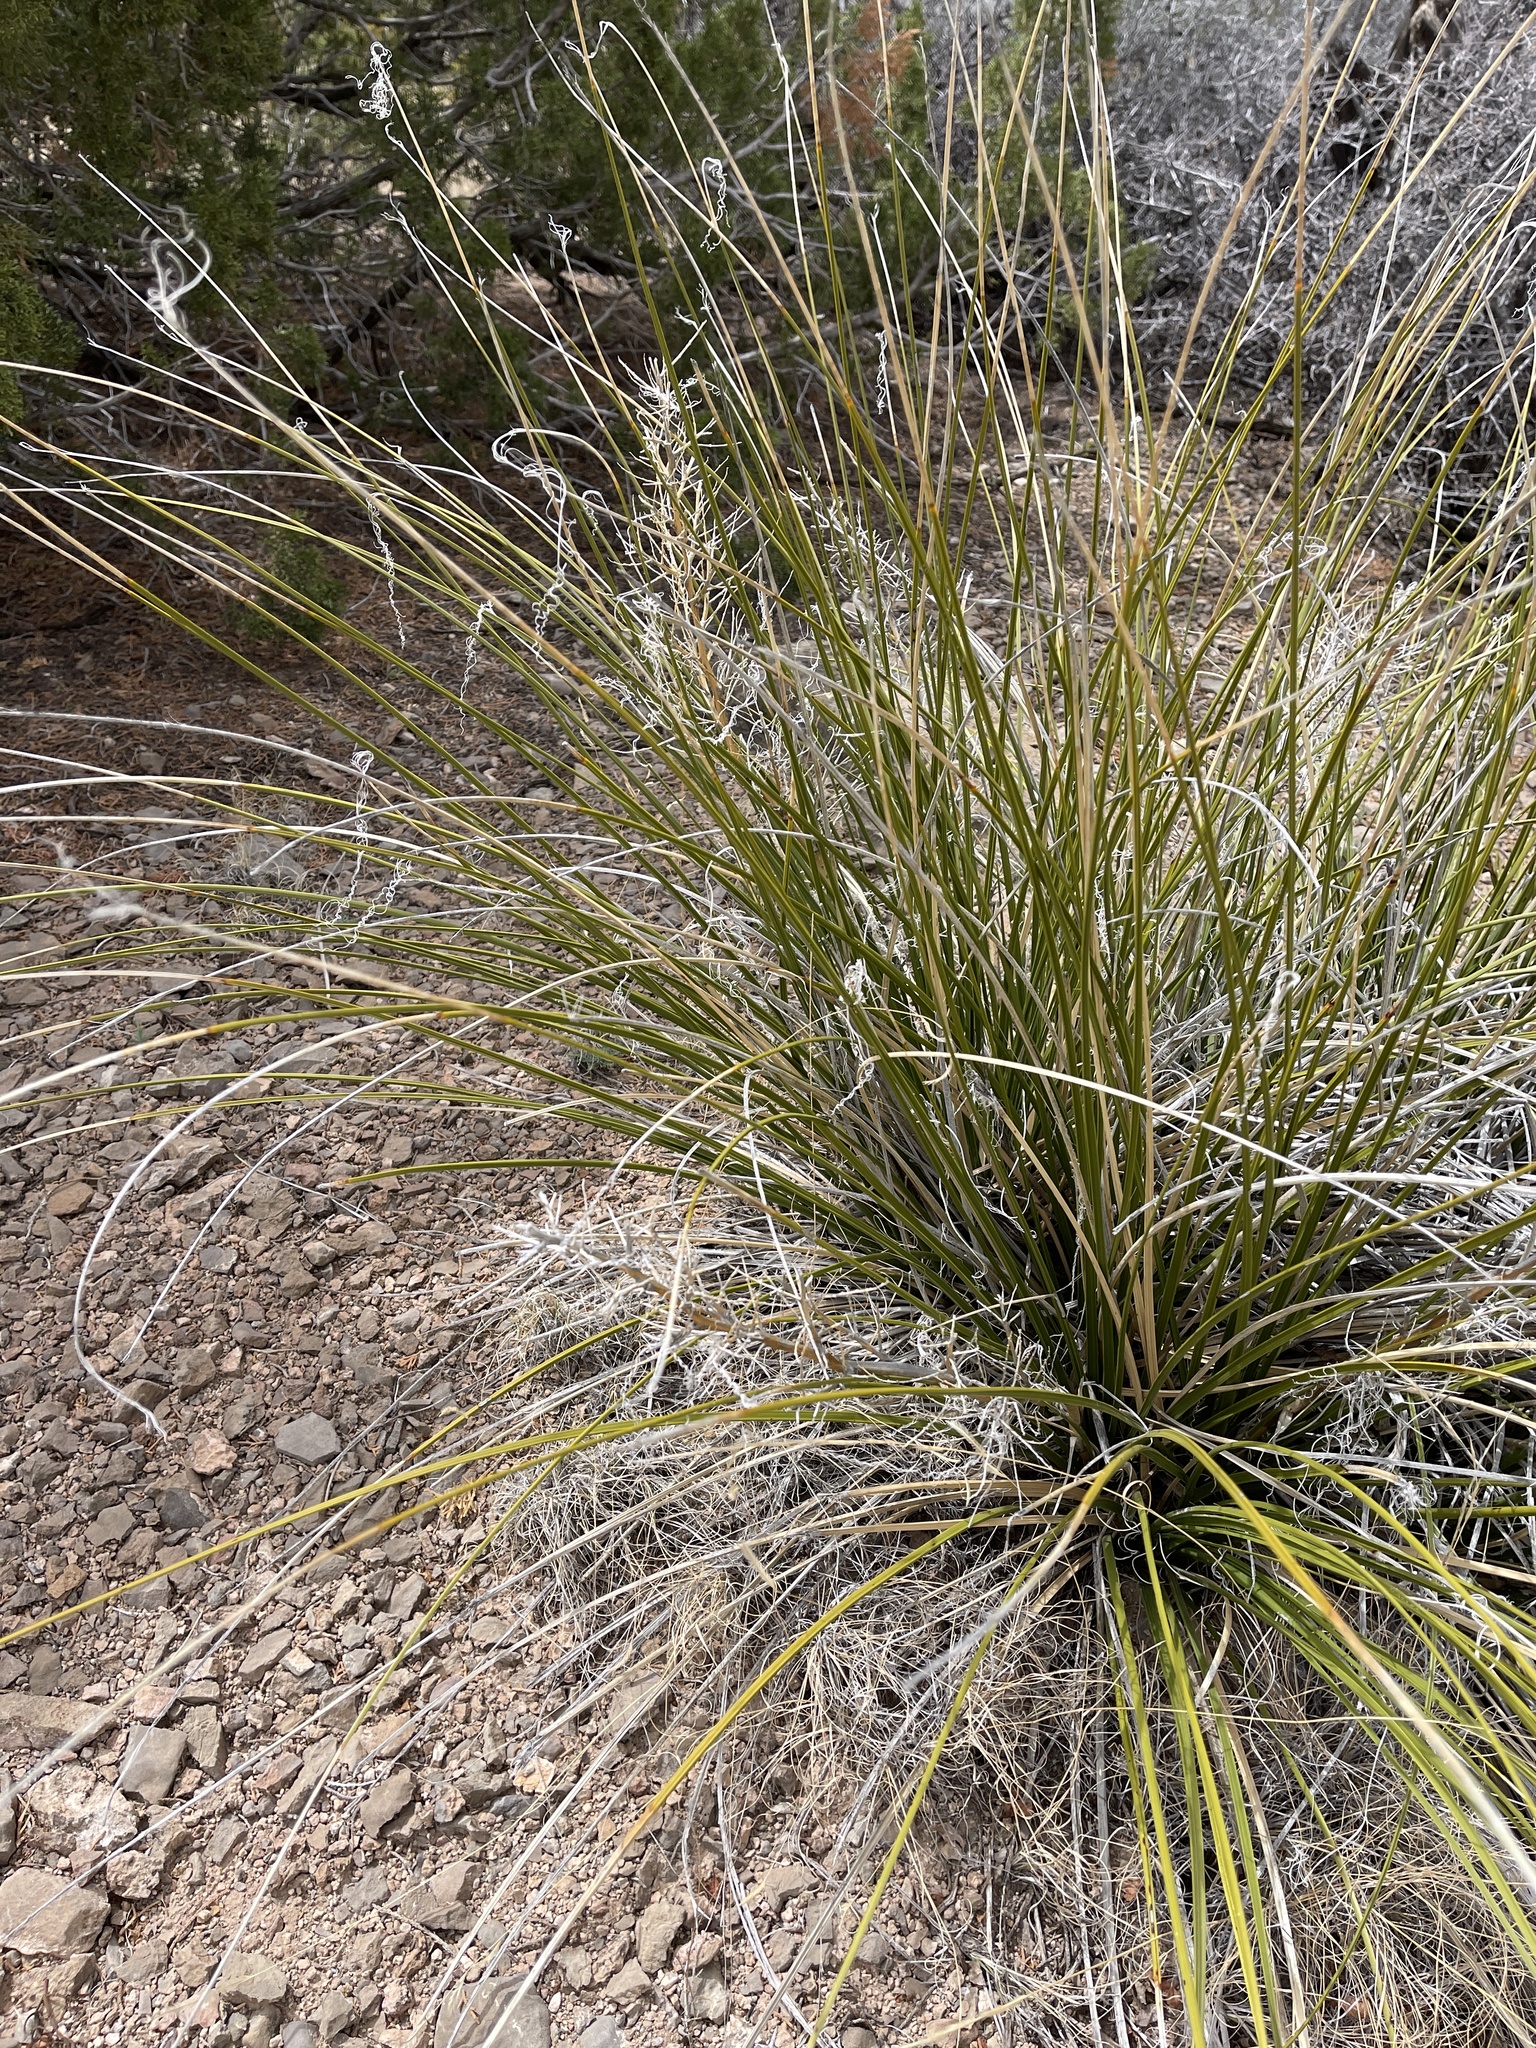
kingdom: Plantae
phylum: Tracheophyta
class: Liliopsida
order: Asparagales
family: Asparagaceae
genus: Nolina
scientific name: Nolina texana
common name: Texas sacahuiste
